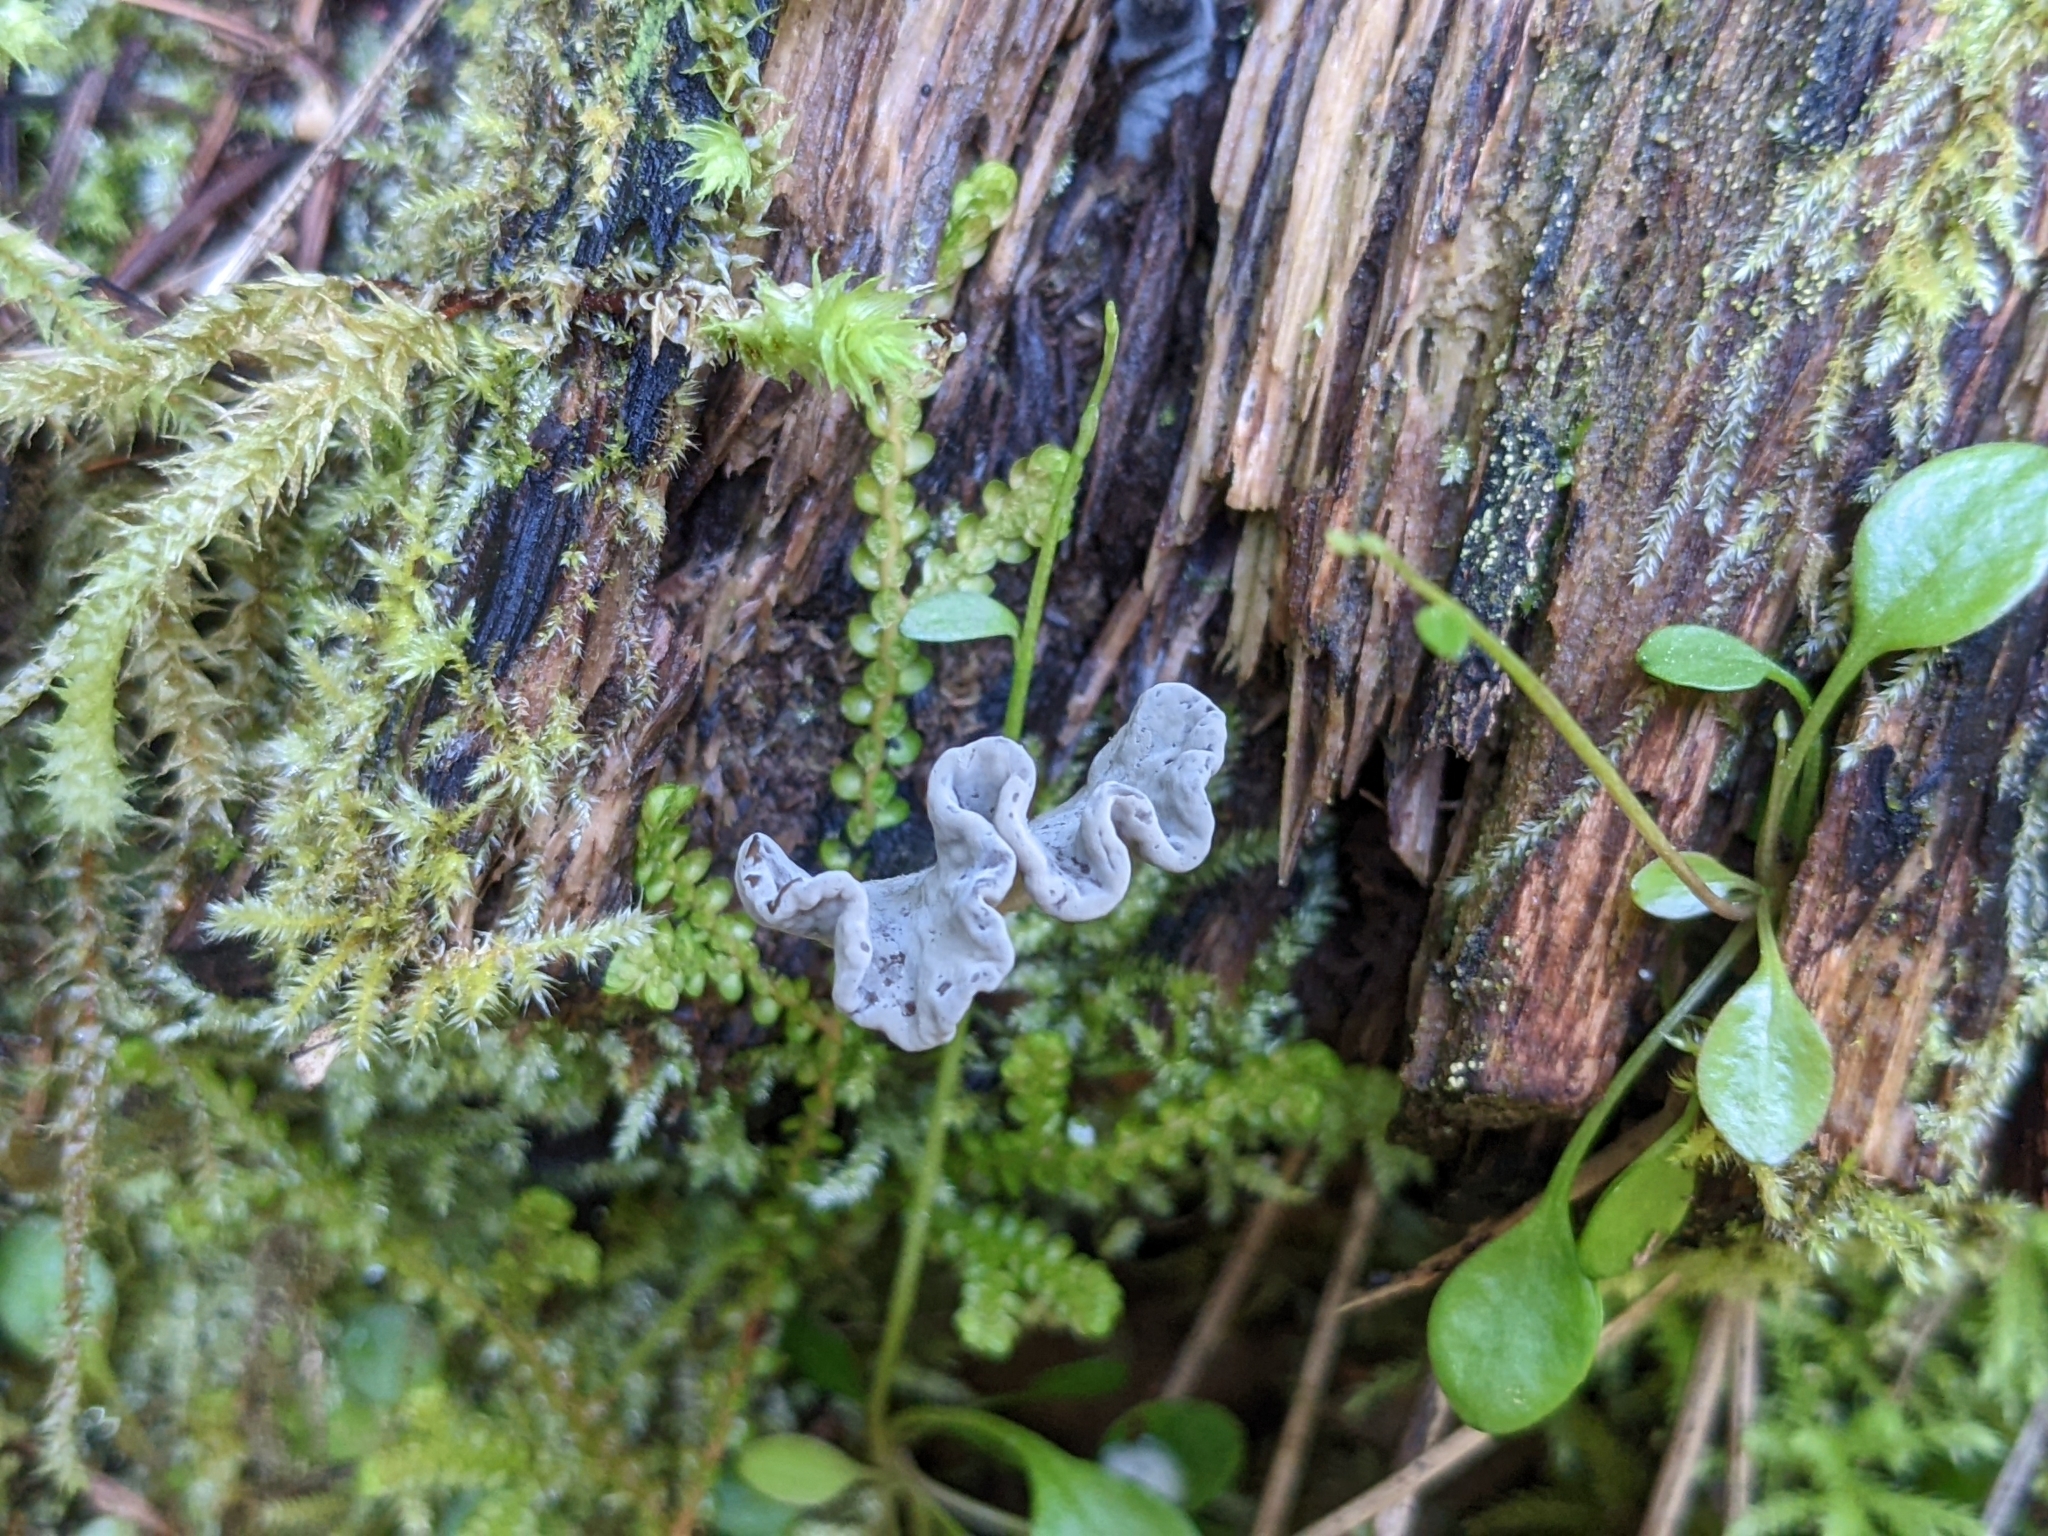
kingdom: Fungi
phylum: Ascomycota
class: Sordariomycetes
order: Xylariales
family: Xylariaceae
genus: Xylaria
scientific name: Xylaria polymorpha
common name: Dead man's fingers
